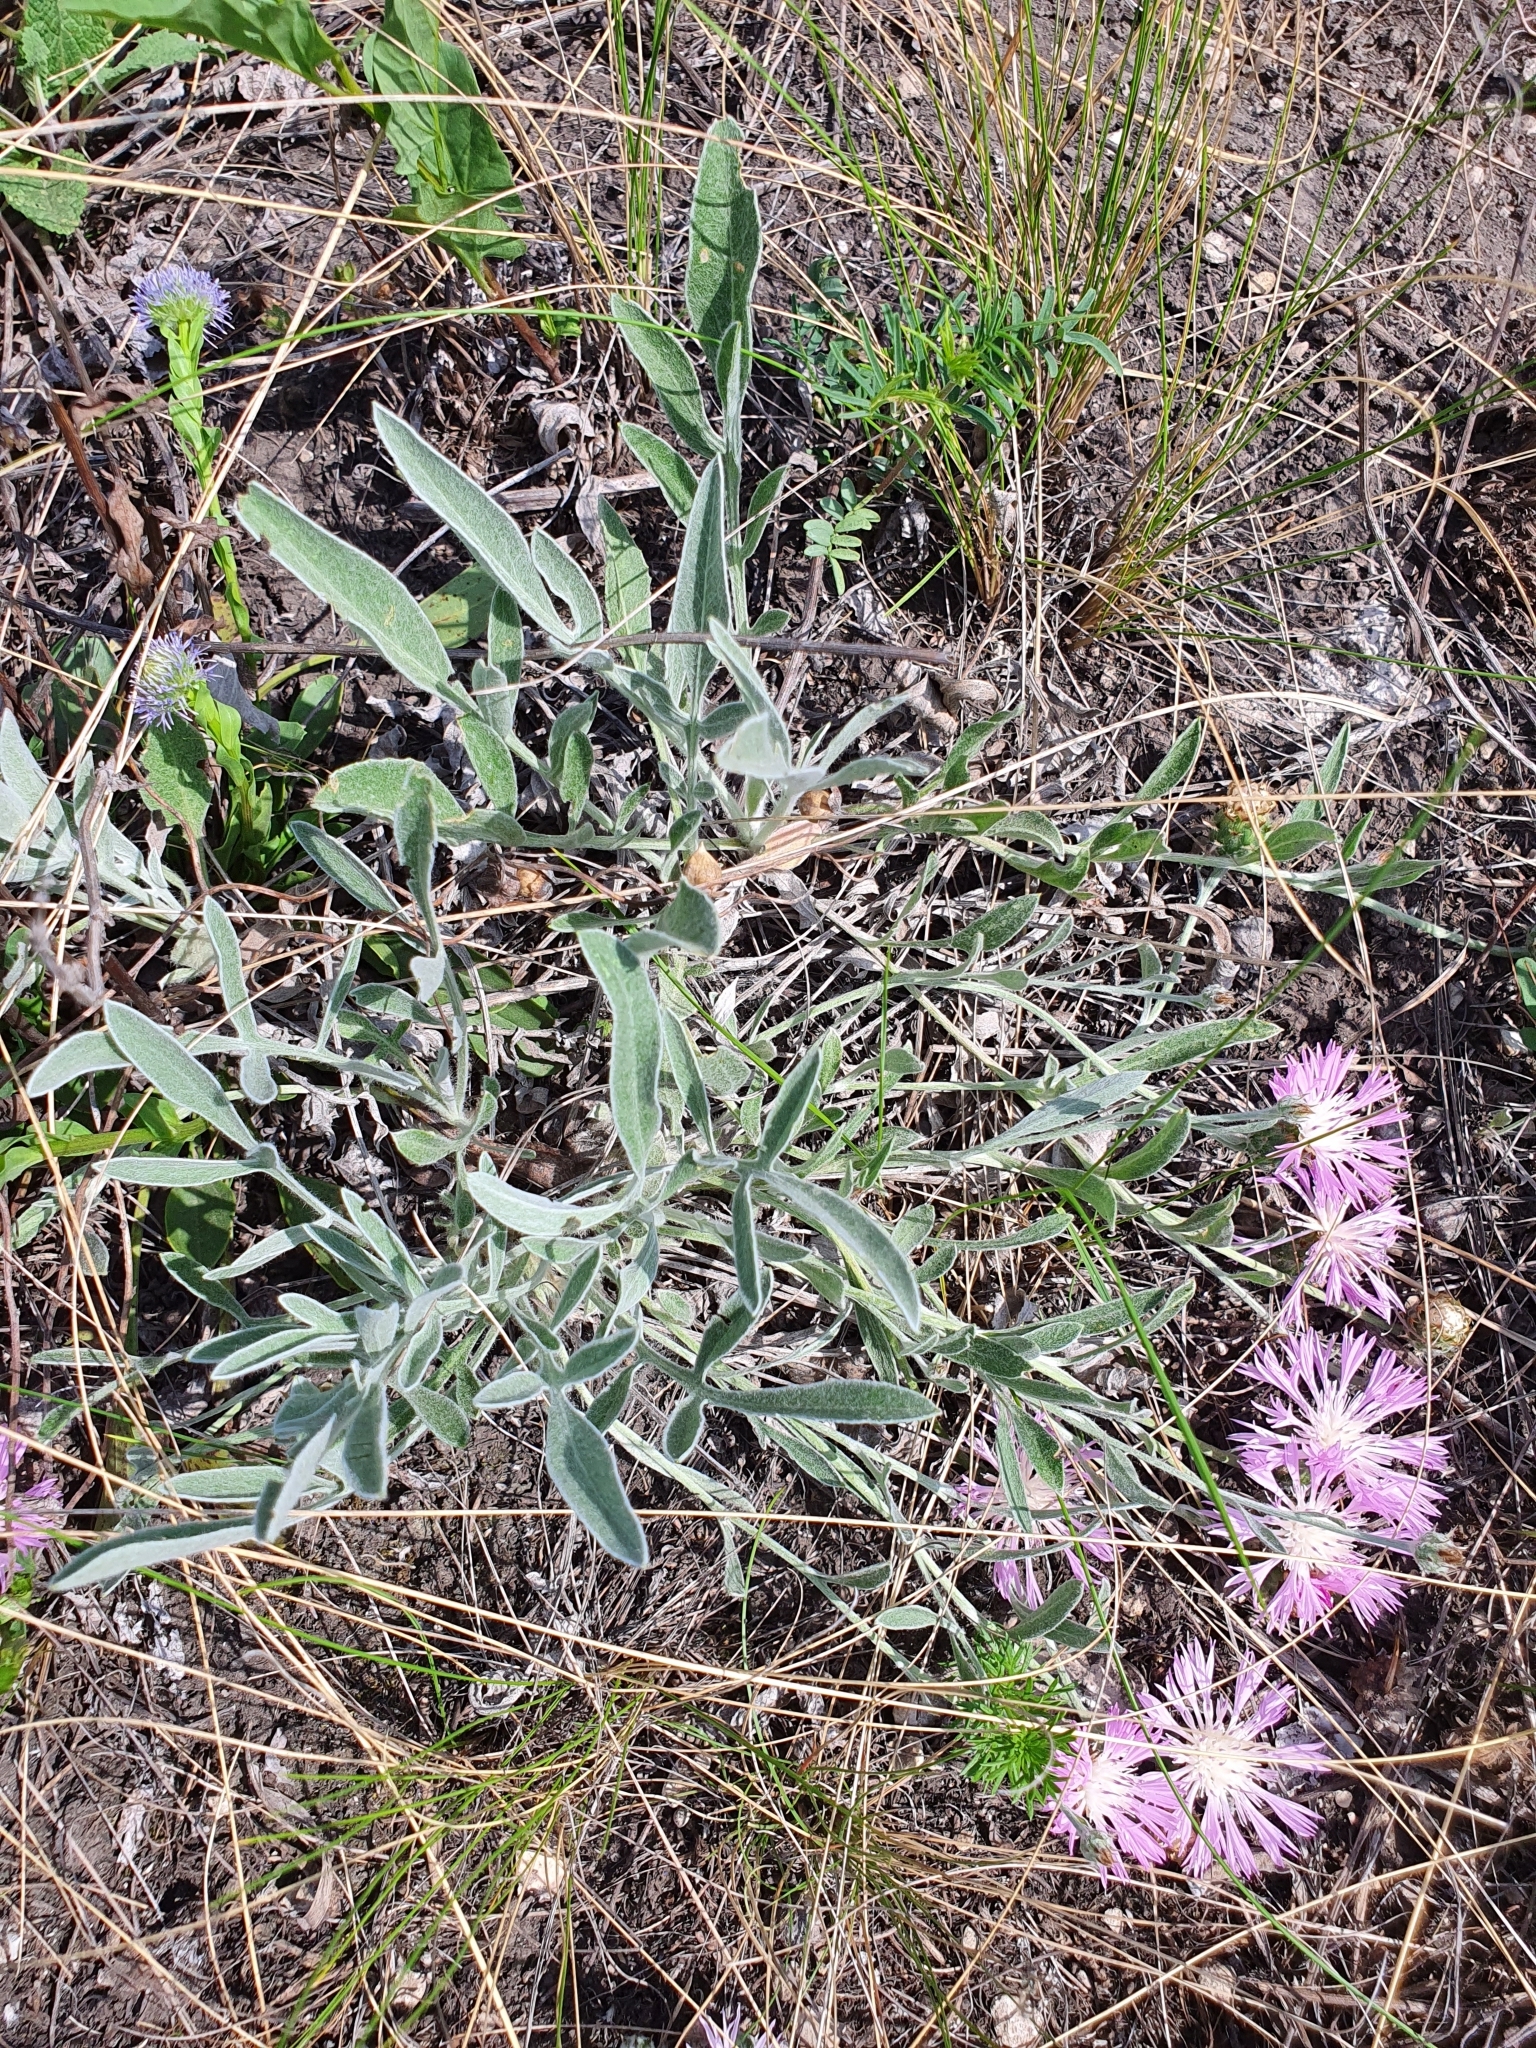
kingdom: Plantae
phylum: Tracheophyta
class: Magnoliopsida
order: Asterales
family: Asteraceae
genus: Psephellus
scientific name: Psephellus marschallianus
